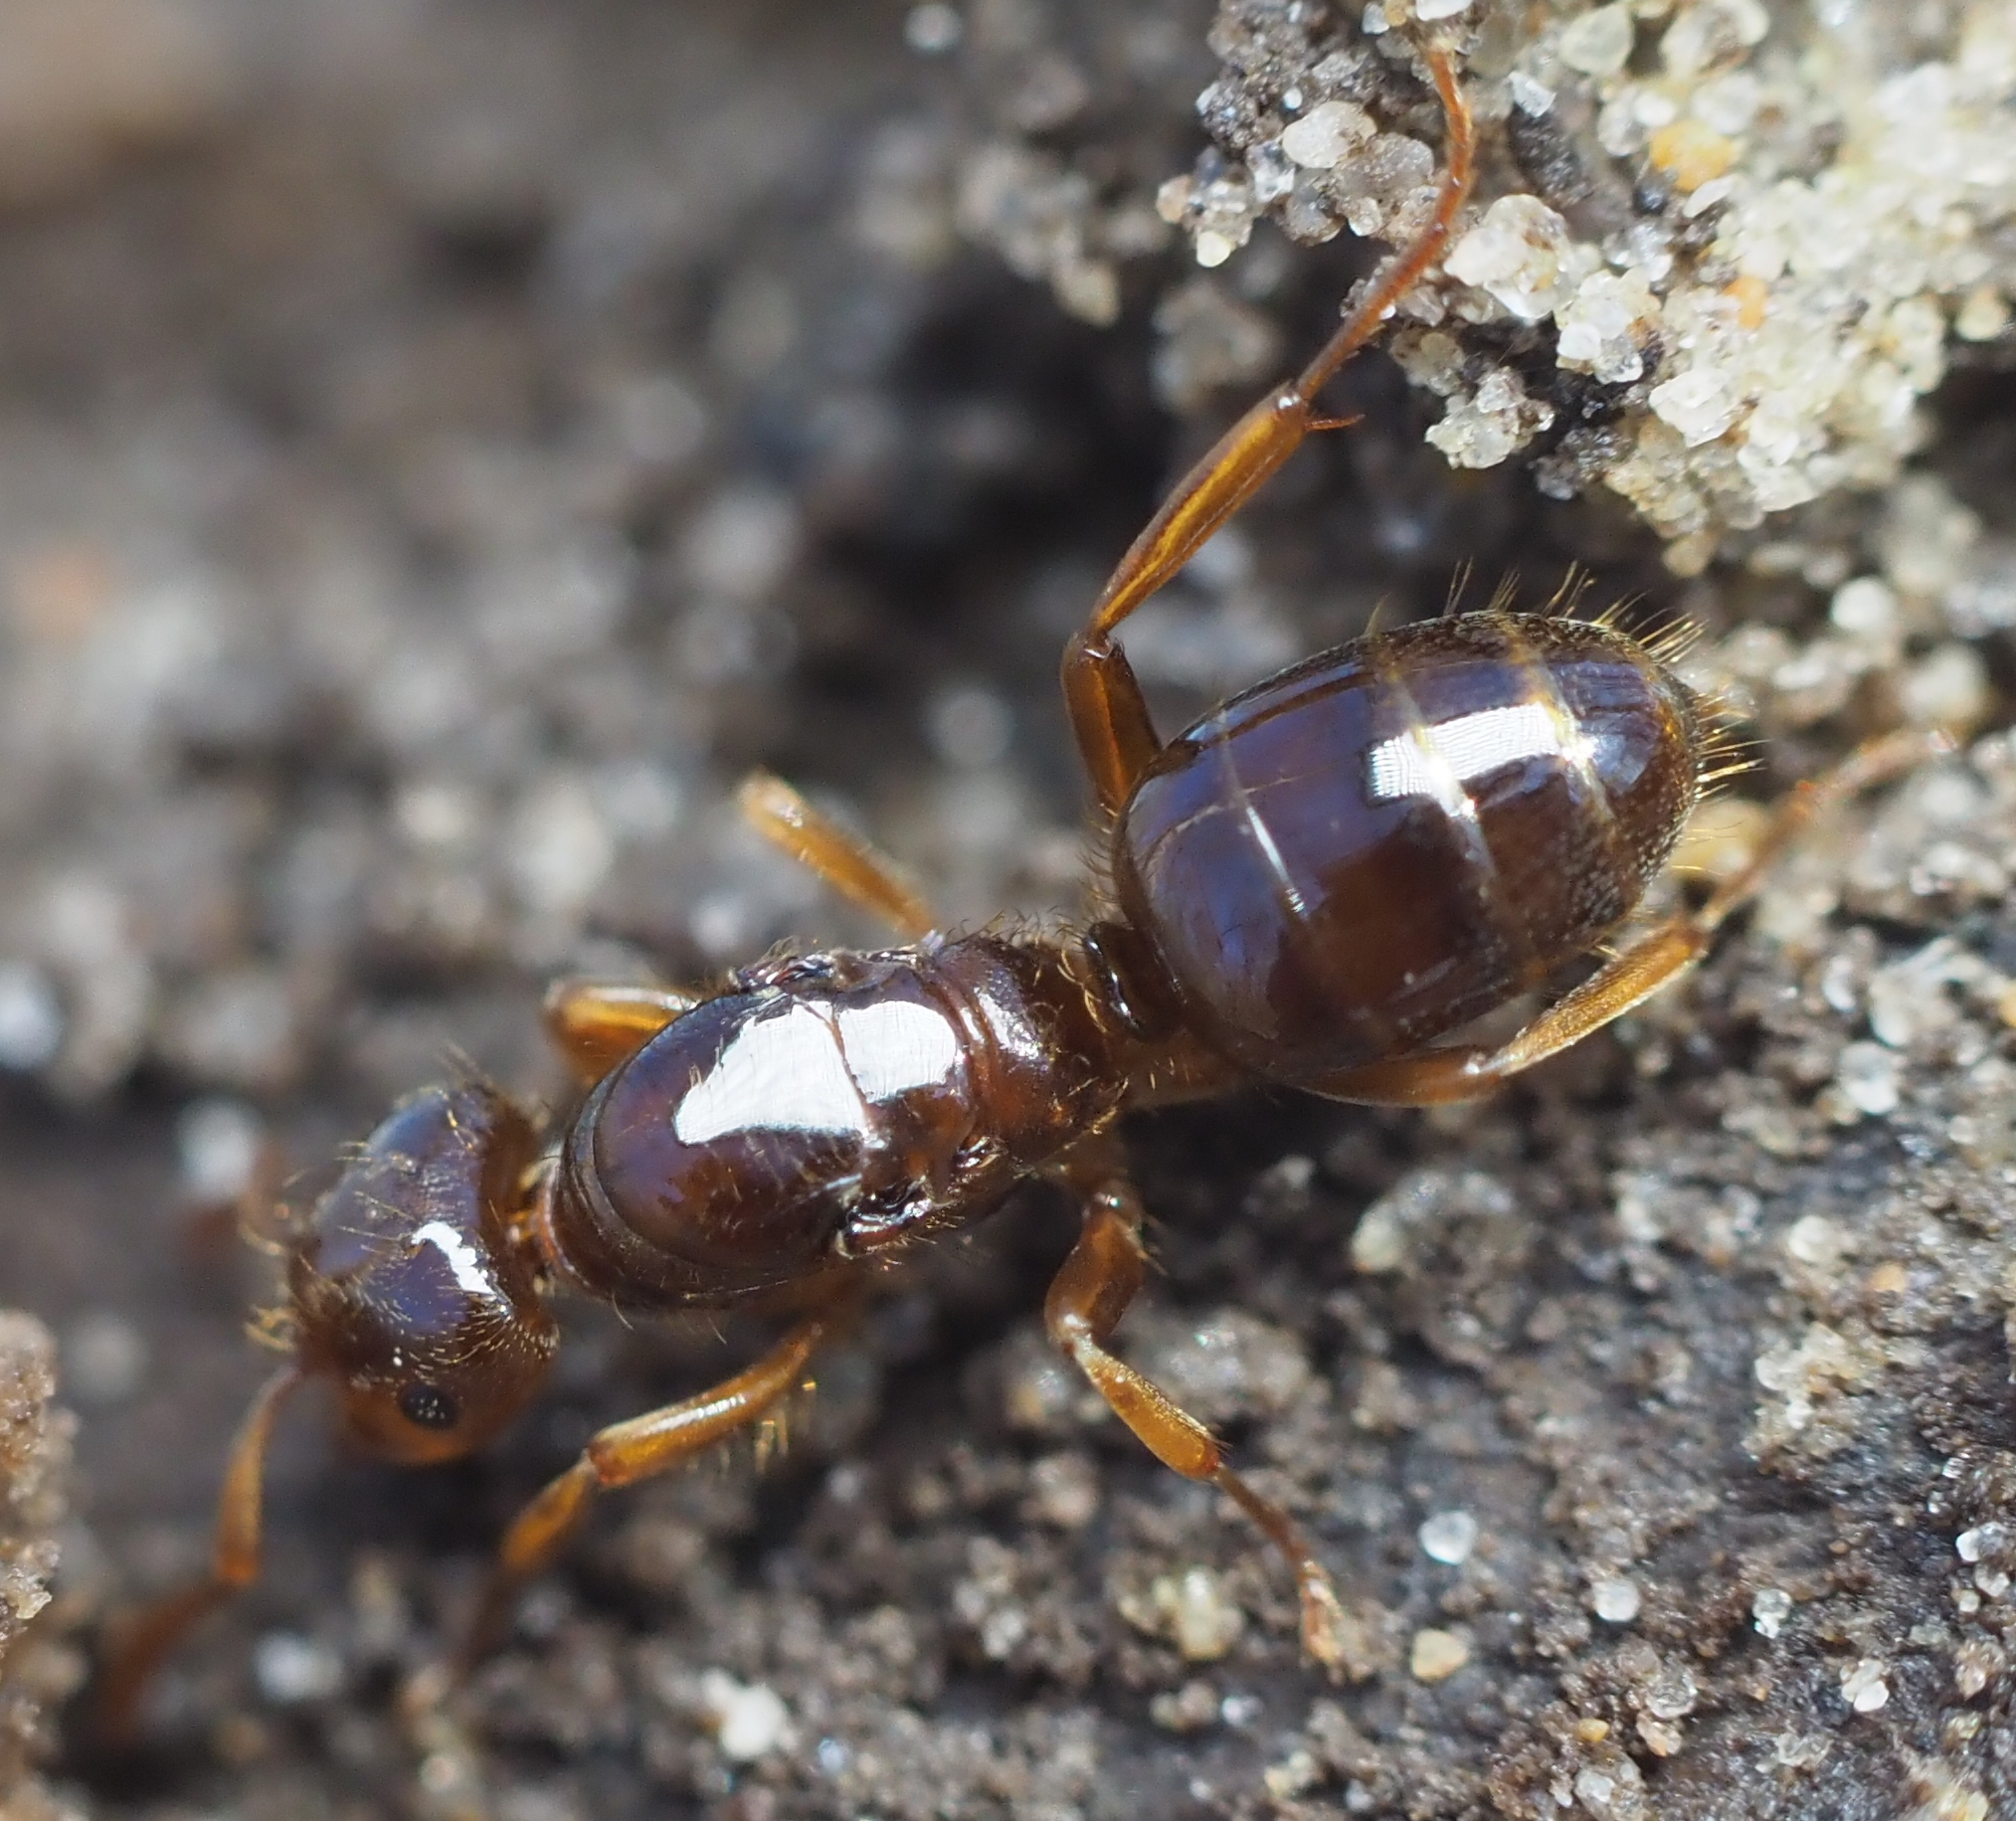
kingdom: Animalia
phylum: Arthropoda
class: Insecta
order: Hymenoptera
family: Formicidae
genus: Lasius
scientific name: Lasius claviger
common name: Common citronella ant
